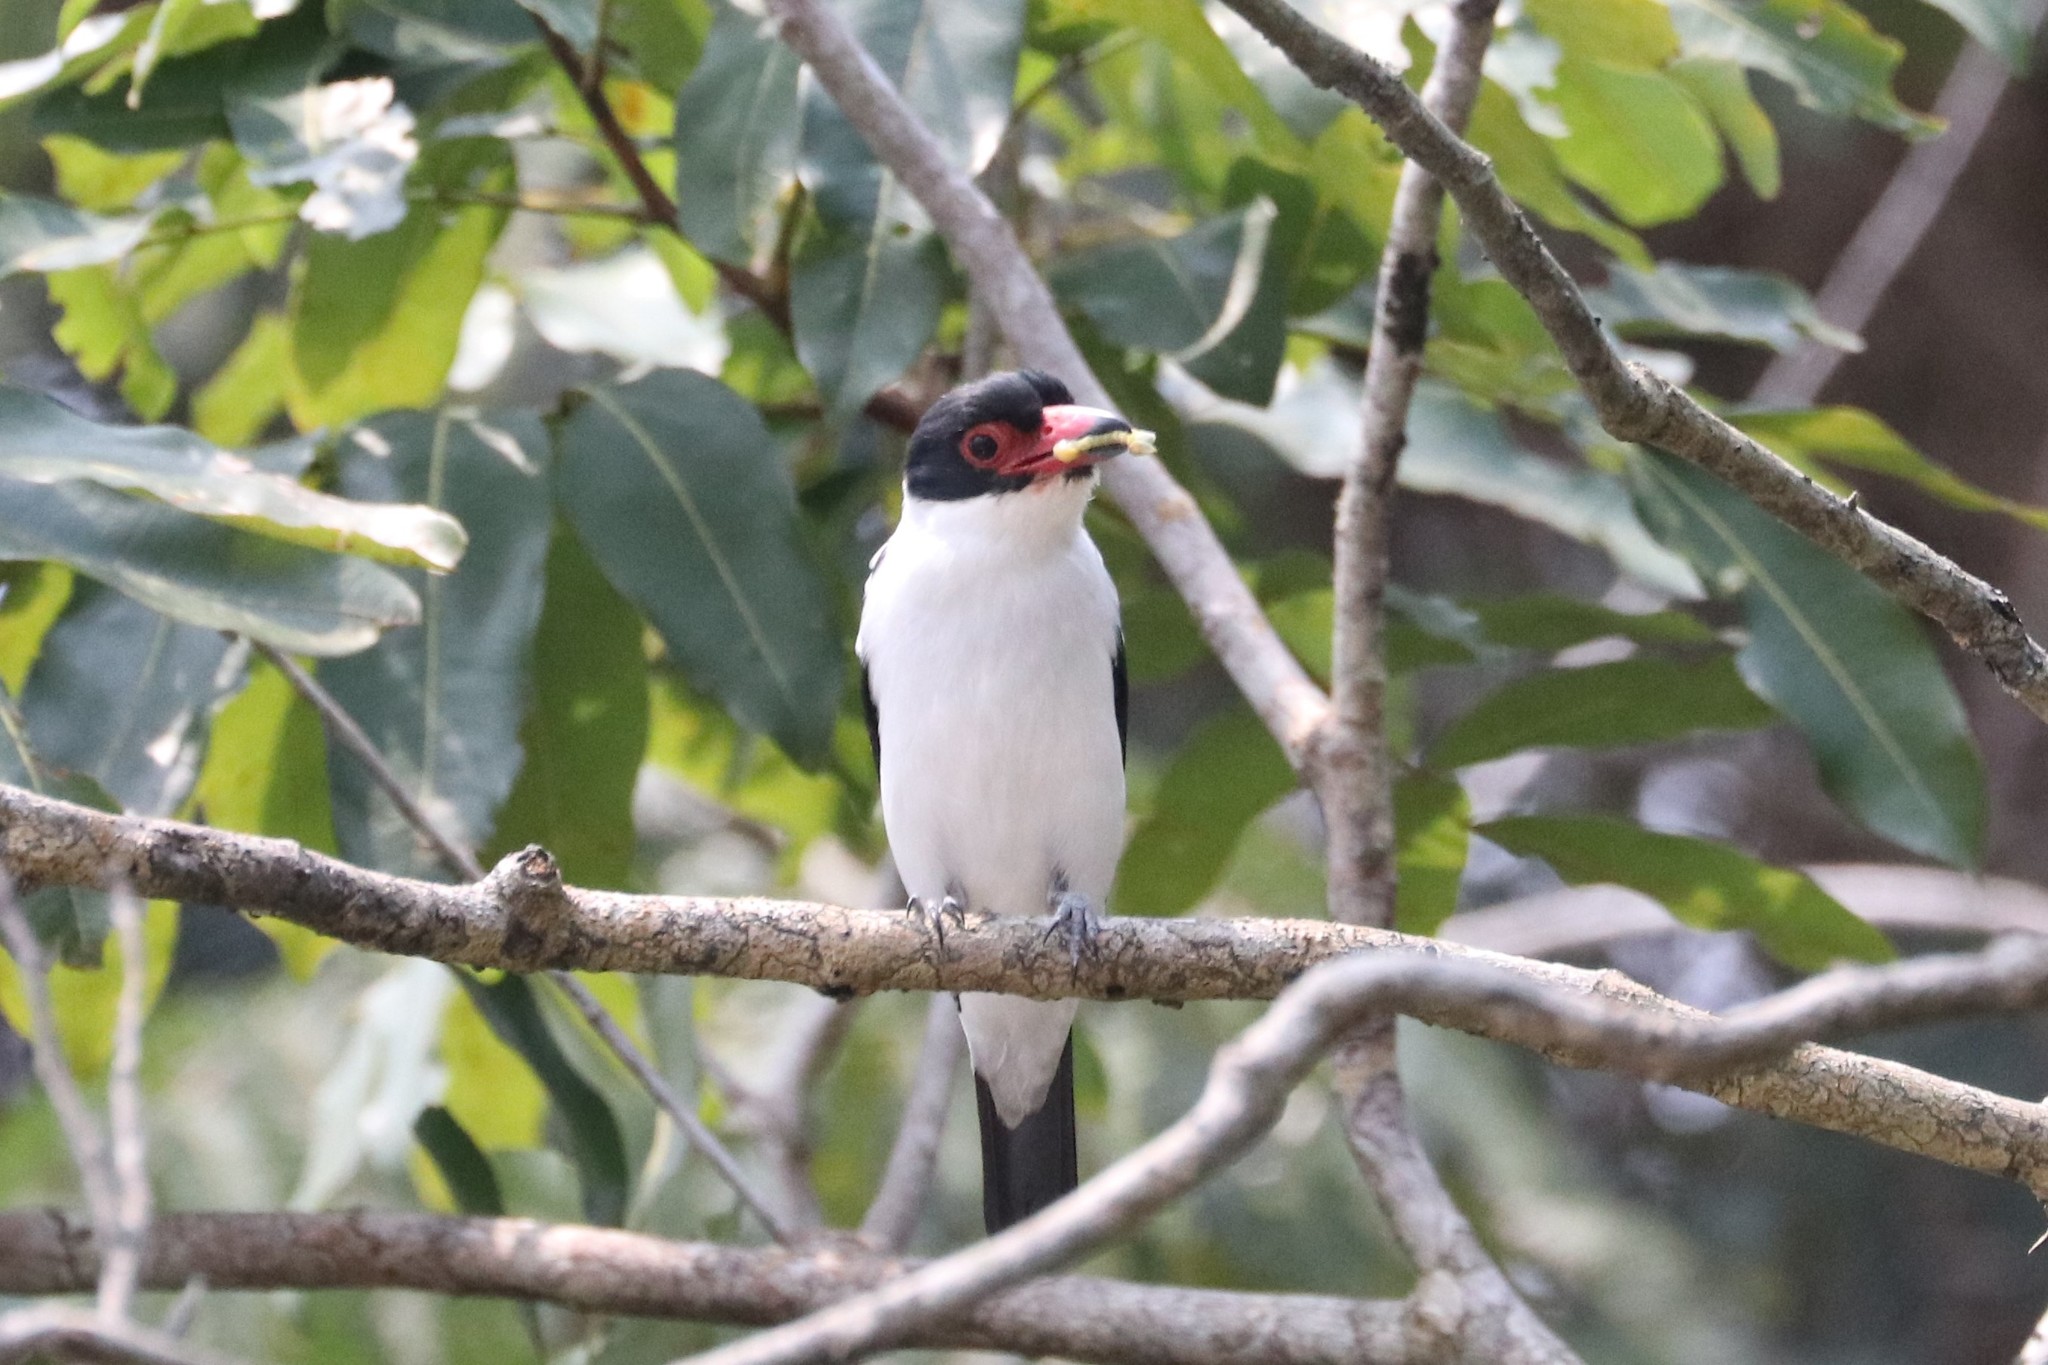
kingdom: Animalia
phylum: Chordata
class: Aves
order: Passeriformes
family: Cotingidae
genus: Tityra
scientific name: Tityra cayana
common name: Black-tailed tityra
